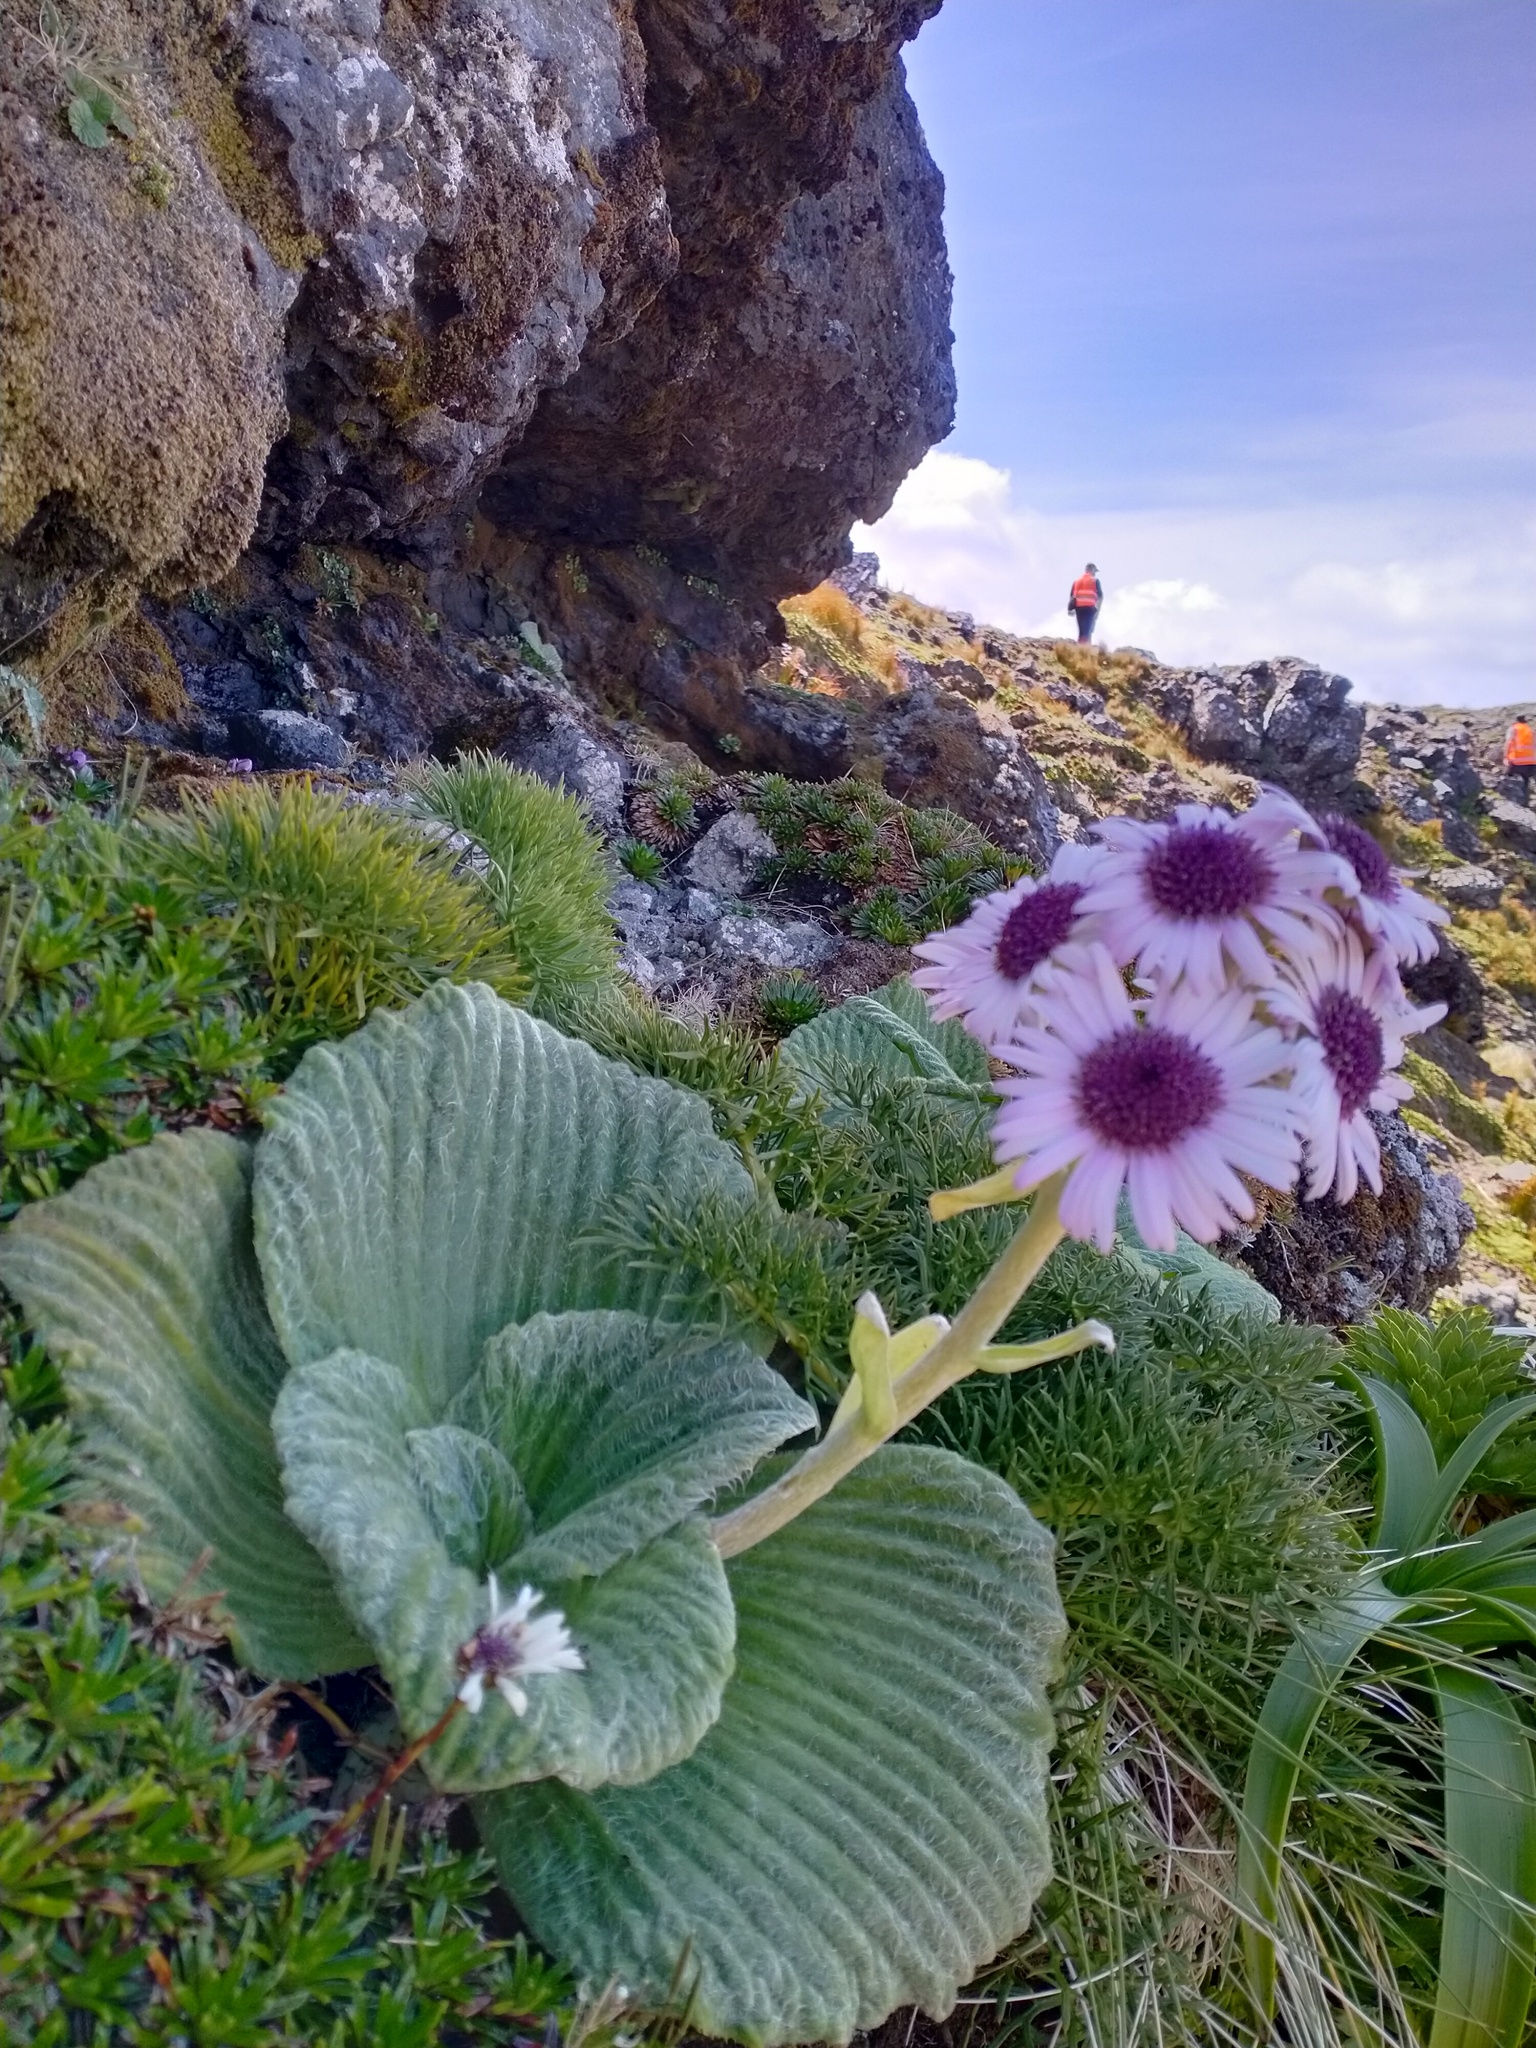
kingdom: Plantae
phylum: Tracheophyta
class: Magnoliopsida
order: Asterales
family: Asteraceae
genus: Pleurophyllum
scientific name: Pleurophyllum speciosum
